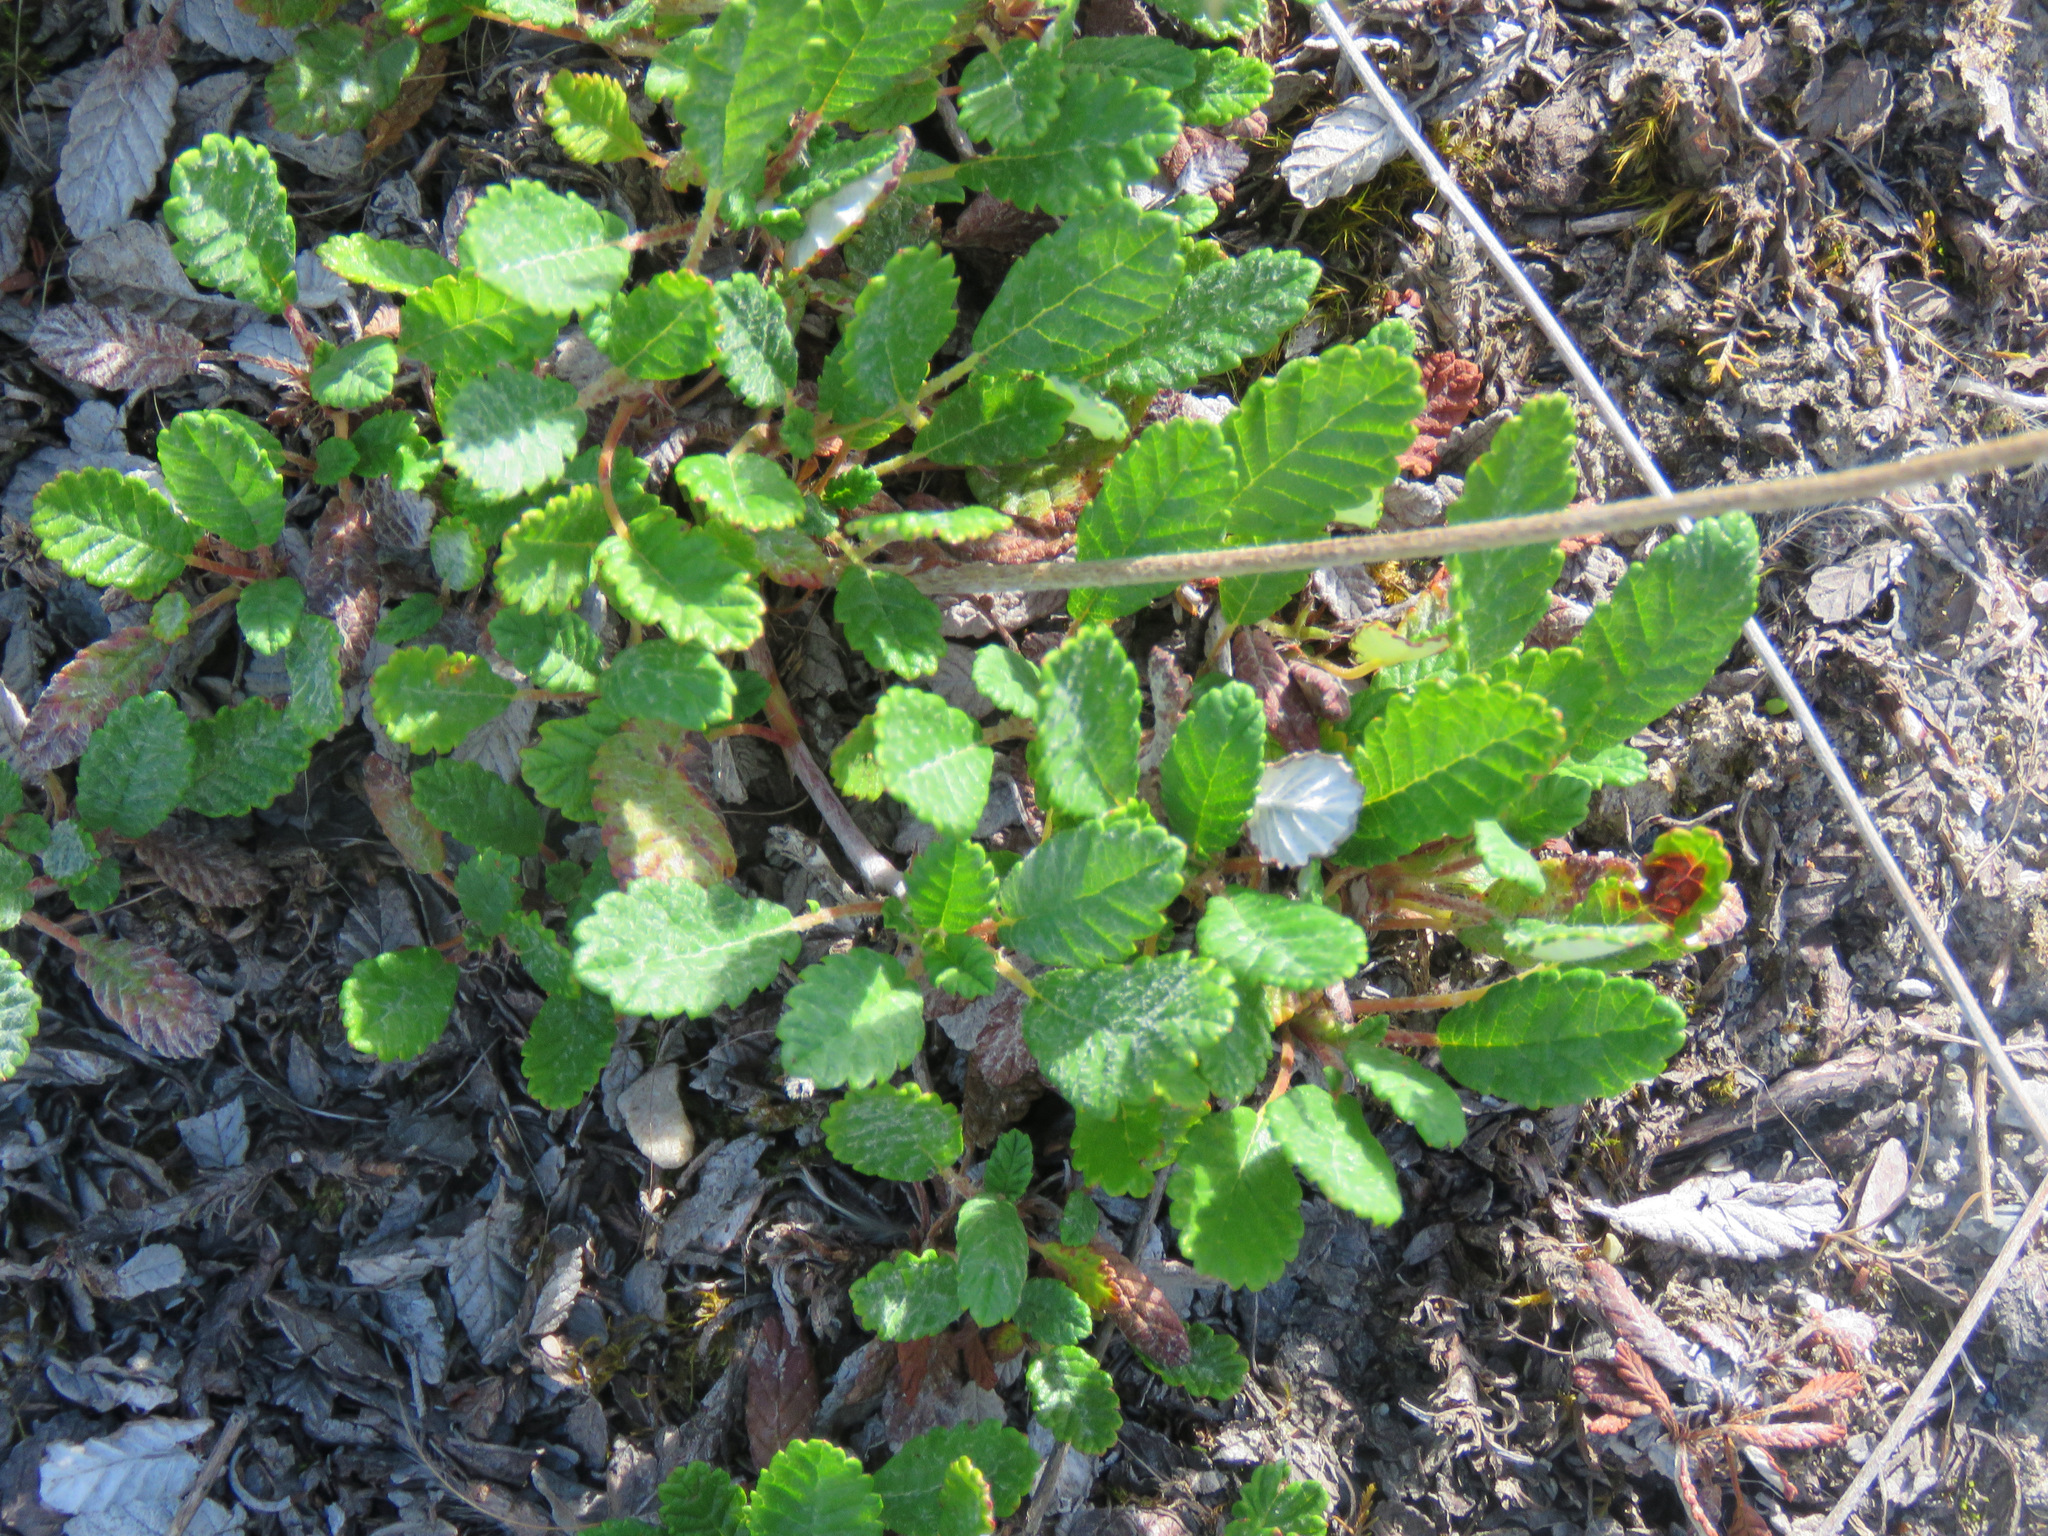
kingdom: Plantae
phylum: Tracheophyta
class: Magnoliopsida
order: Rosales
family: Rosaceae
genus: Dryas
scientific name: Dryas drummondii
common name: Drummond's dryad
